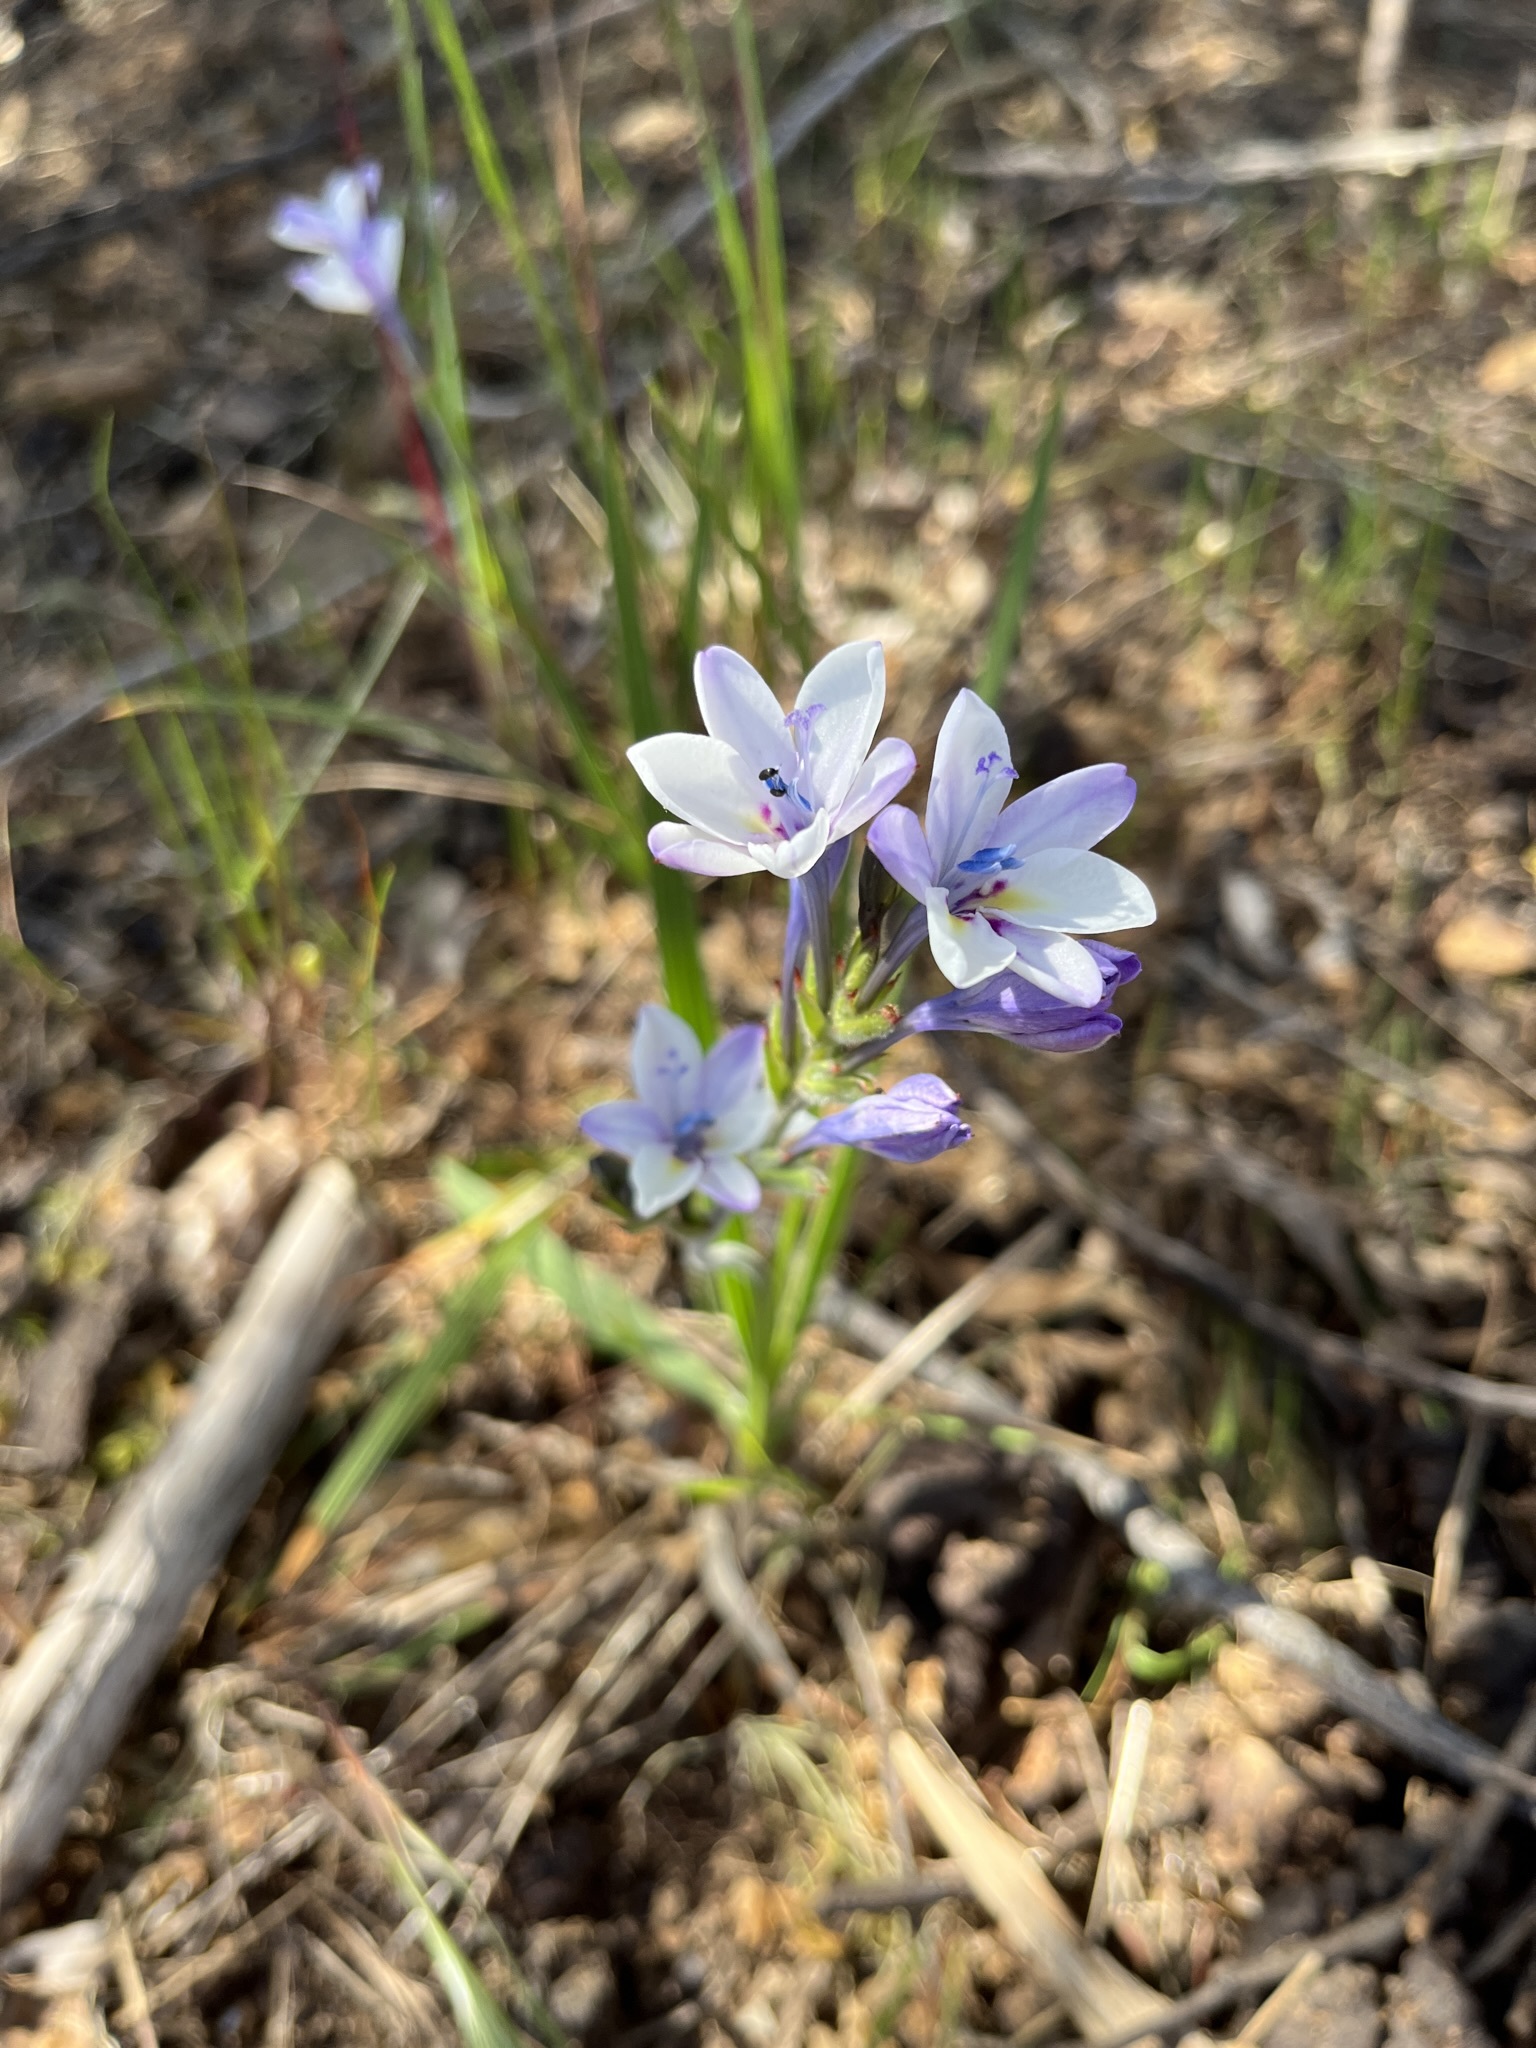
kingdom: Plantae
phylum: Tracheophyta
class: Liliopsida
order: Asparagales
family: Iridaceae
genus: Babiana
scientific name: Babiana patersoniae
